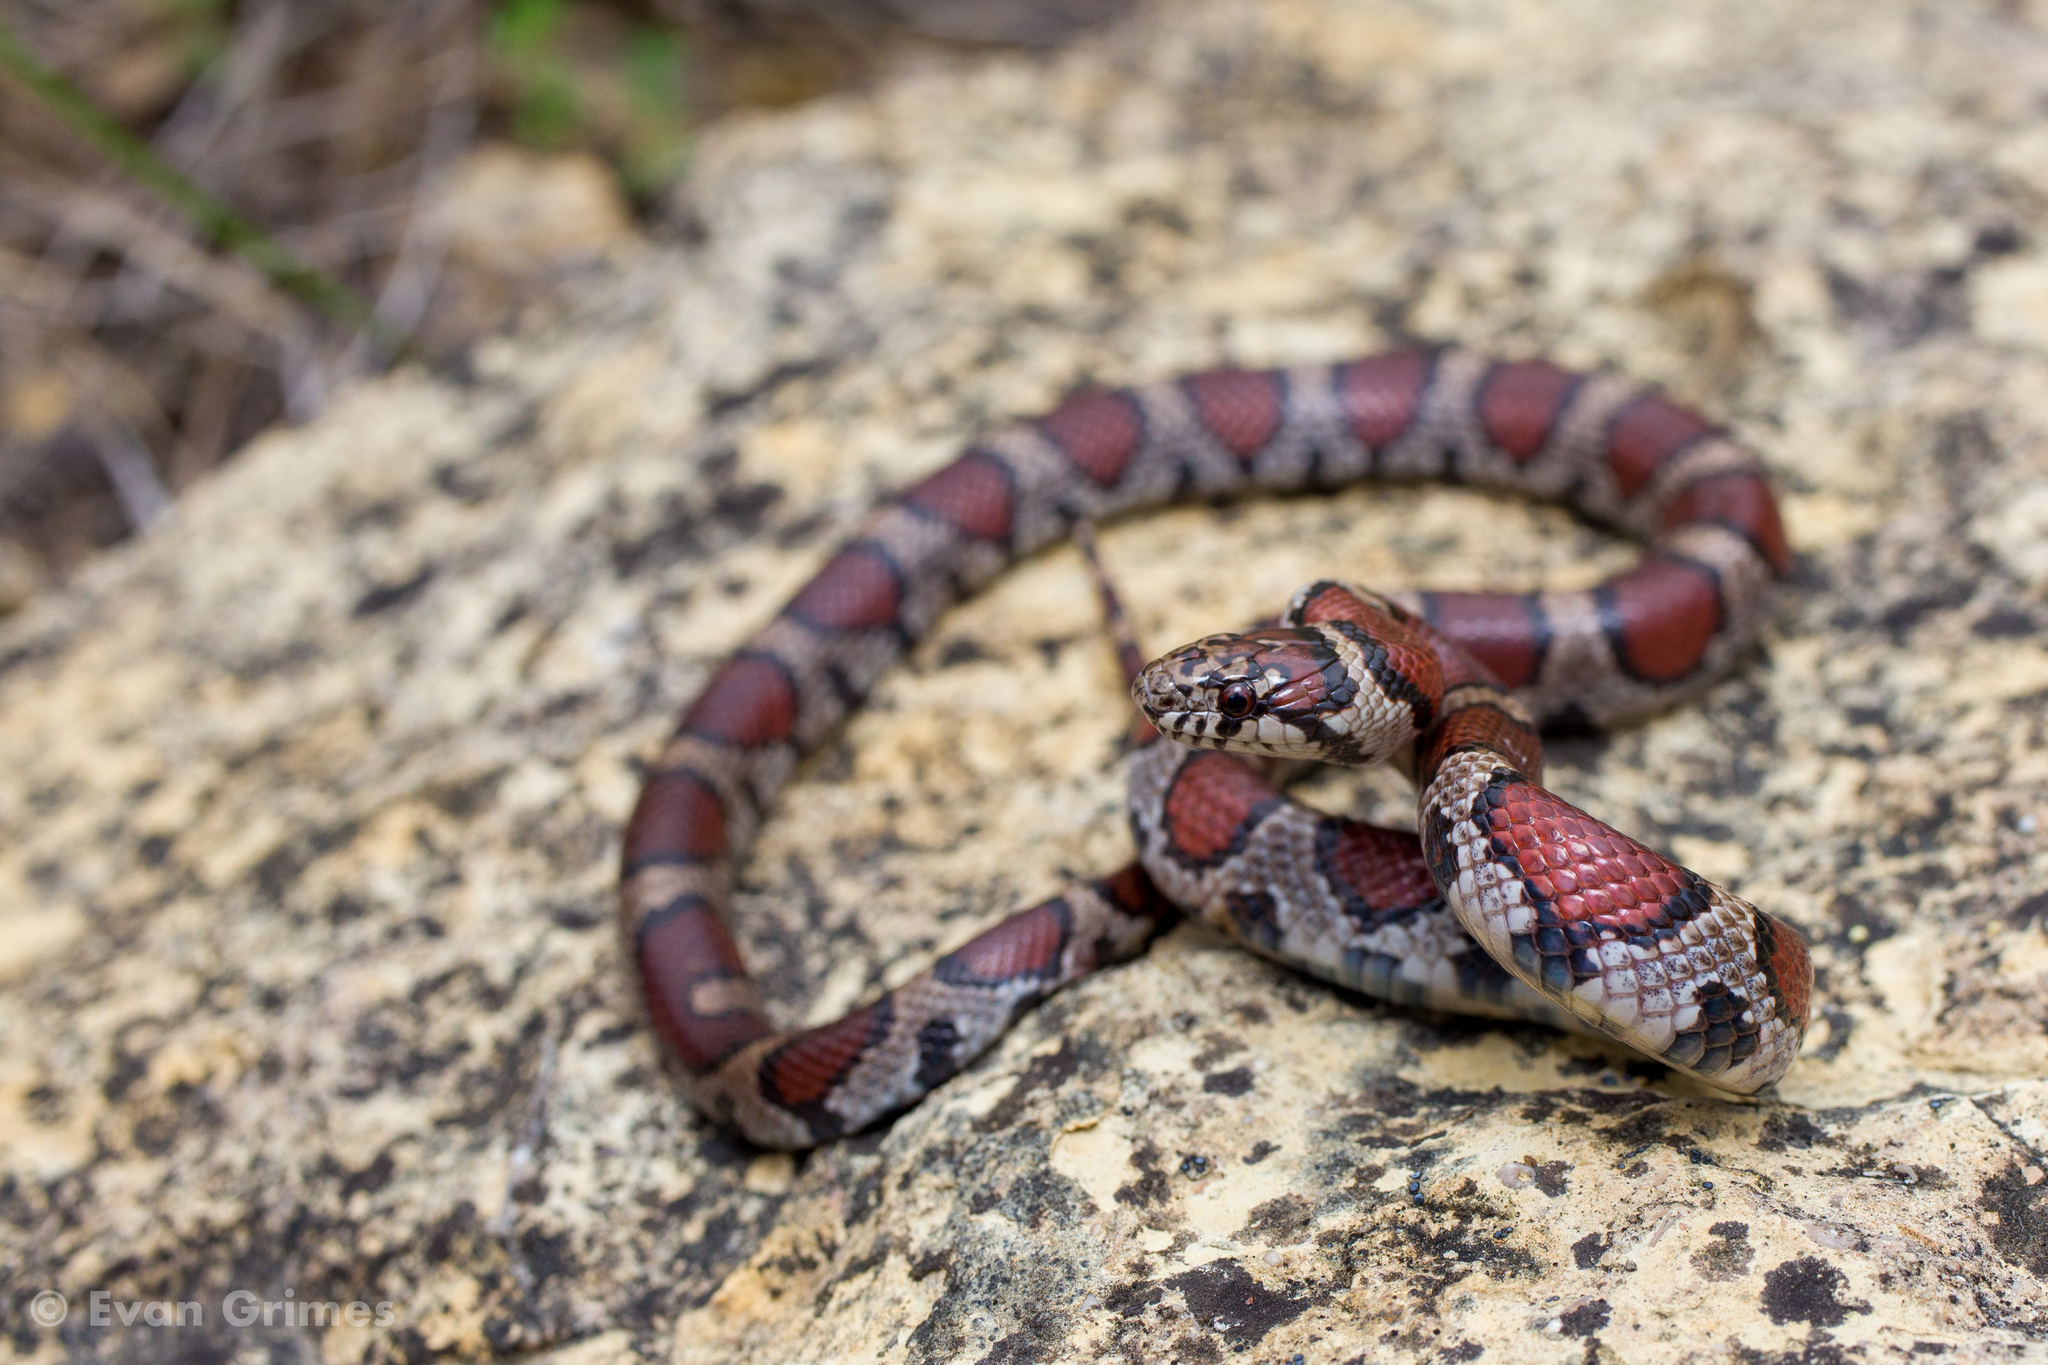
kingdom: Animalia
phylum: Chordata
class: Squamata
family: Colubridae
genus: Lampropeltis
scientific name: Lampropeltis triangulum
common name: Eastern milksnake
